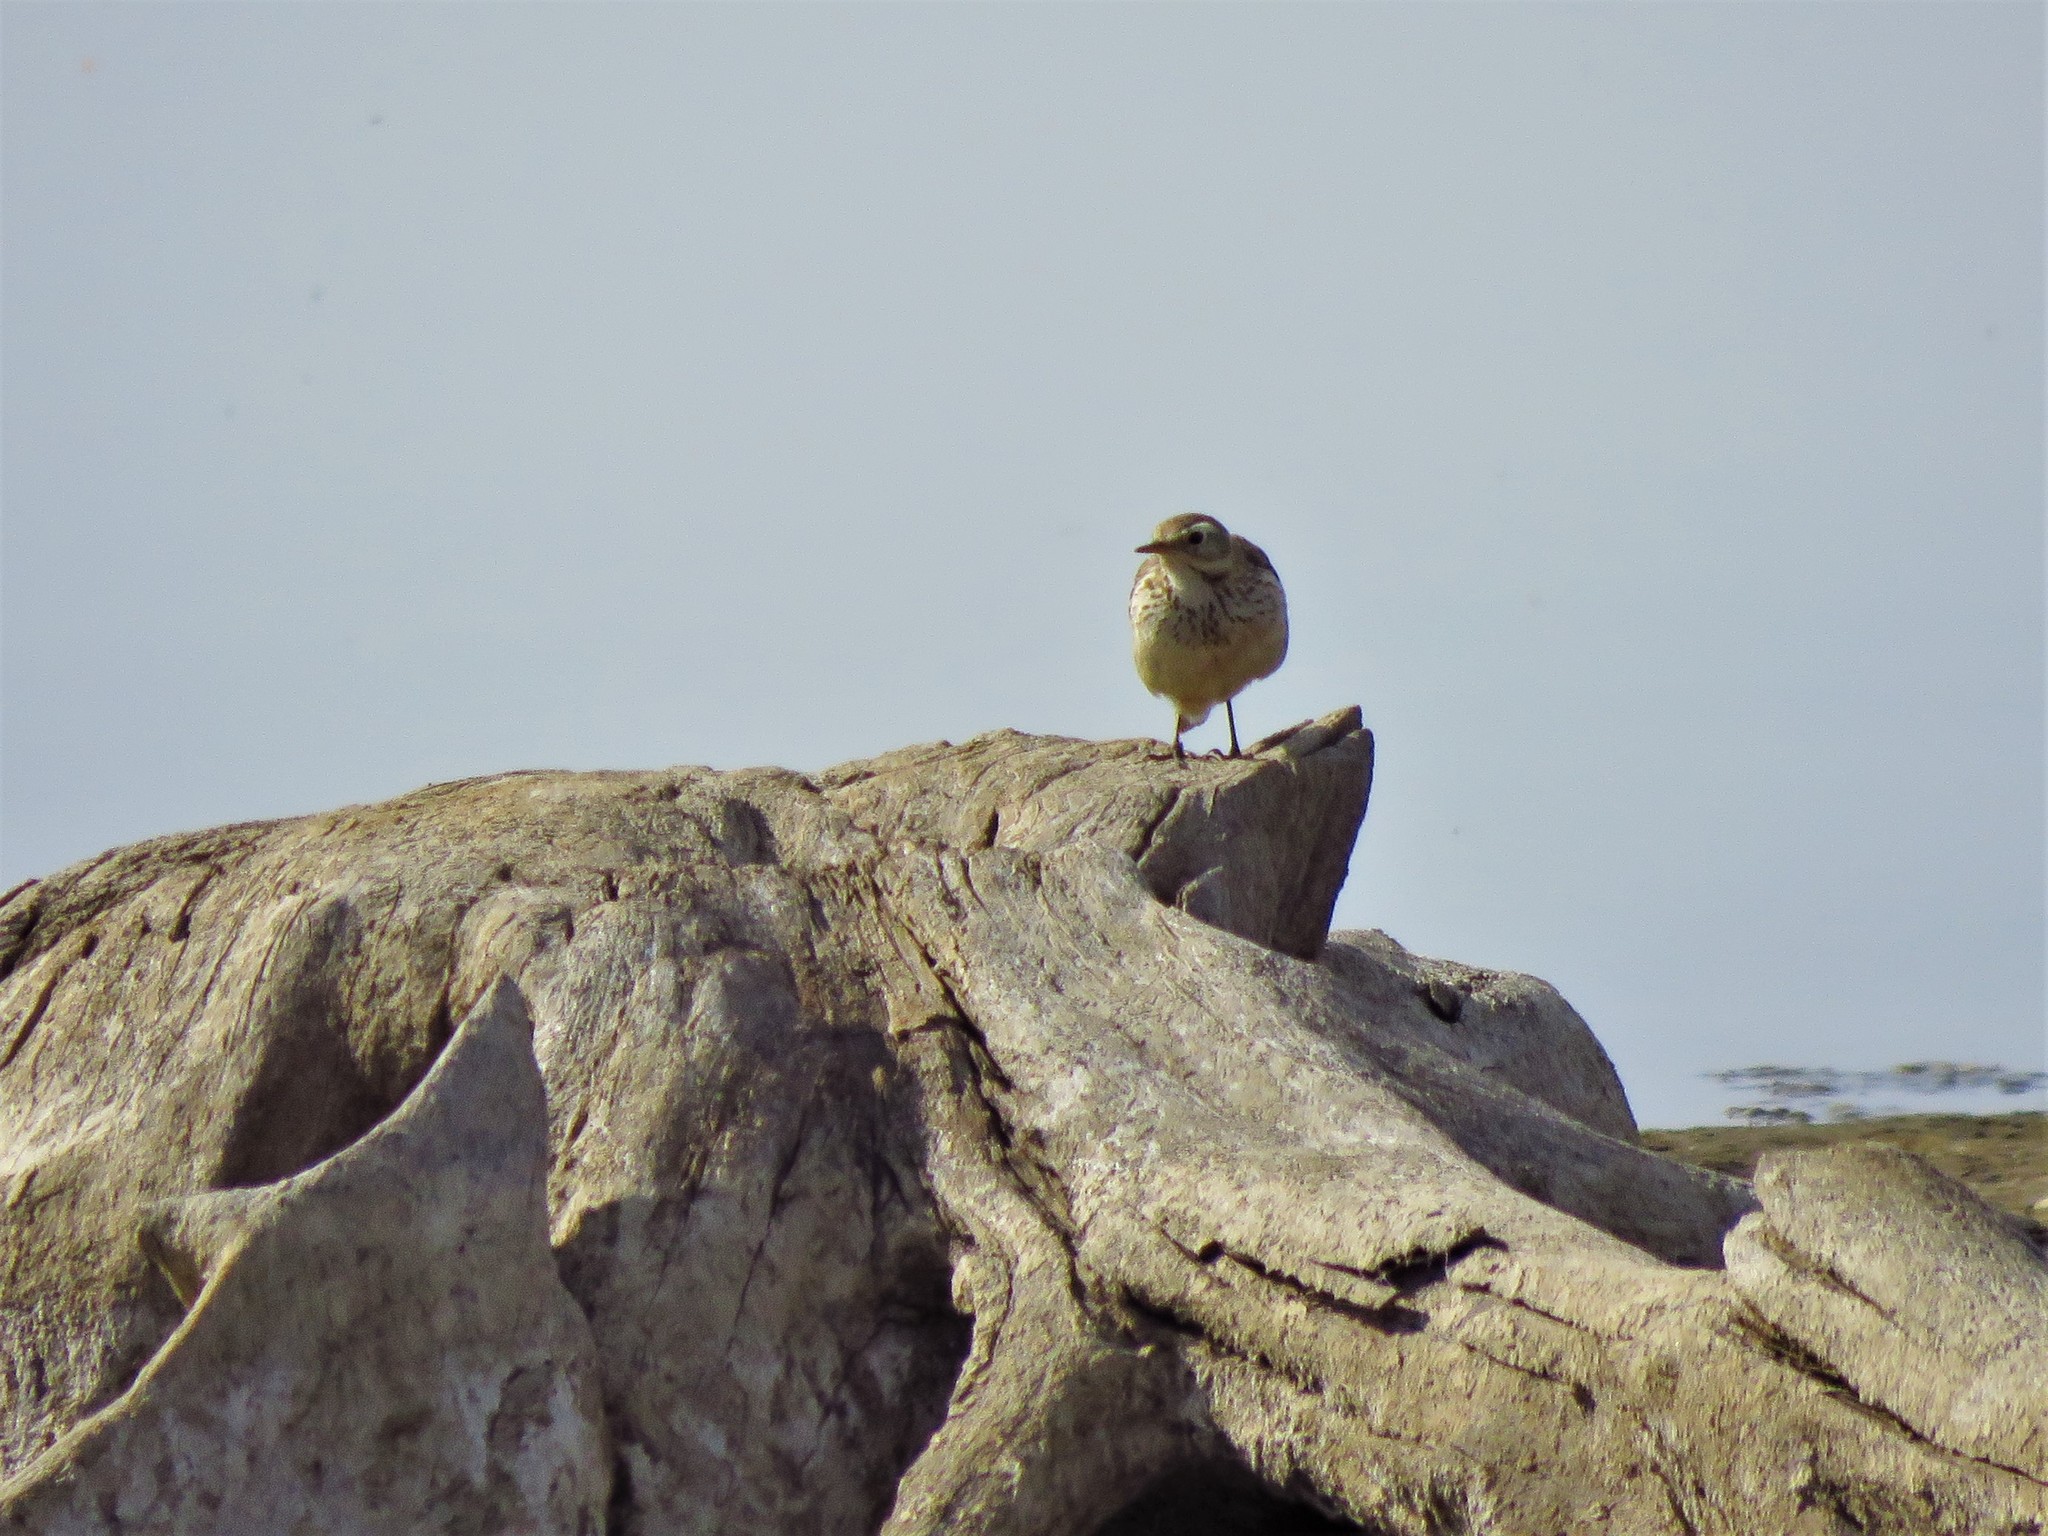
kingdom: Animalia
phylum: Chordata
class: Aves
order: Passeriformes
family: Motacillidae
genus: Anthus
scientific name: Anthus rubescens
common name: Buff-bellied pipit
